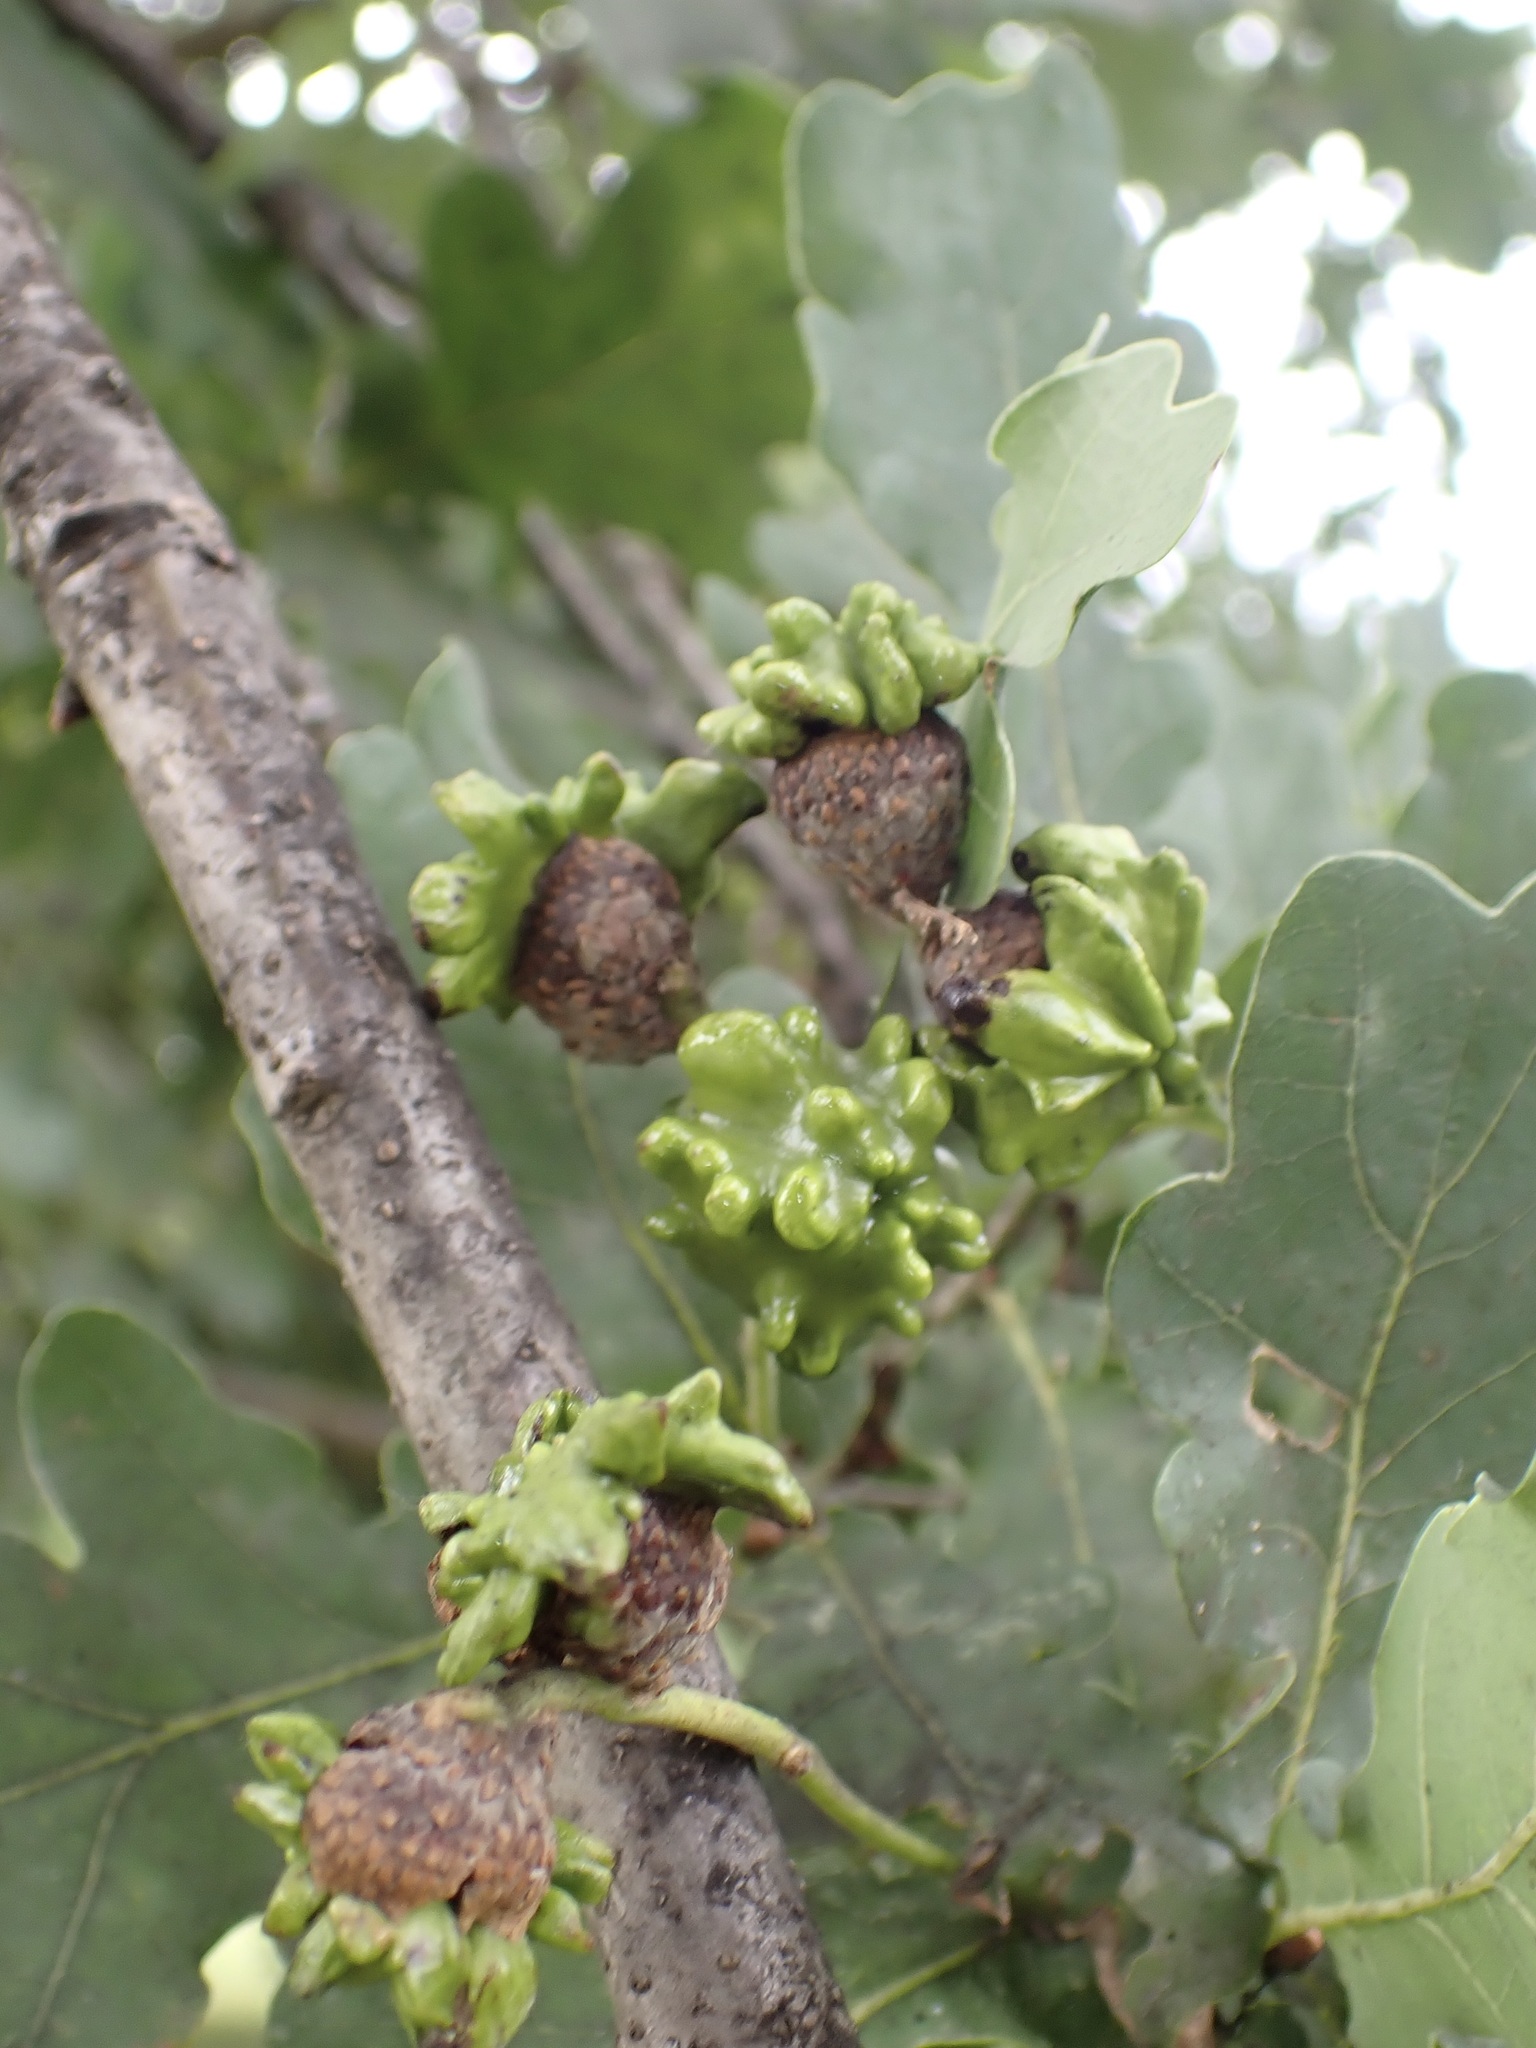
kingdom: Animalia
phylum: Arthropoda
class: Insecta
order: Hymenoptera
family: Cynipidae
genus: Andricus
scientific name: Andricus quercuscalicis
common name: Knopper gall
